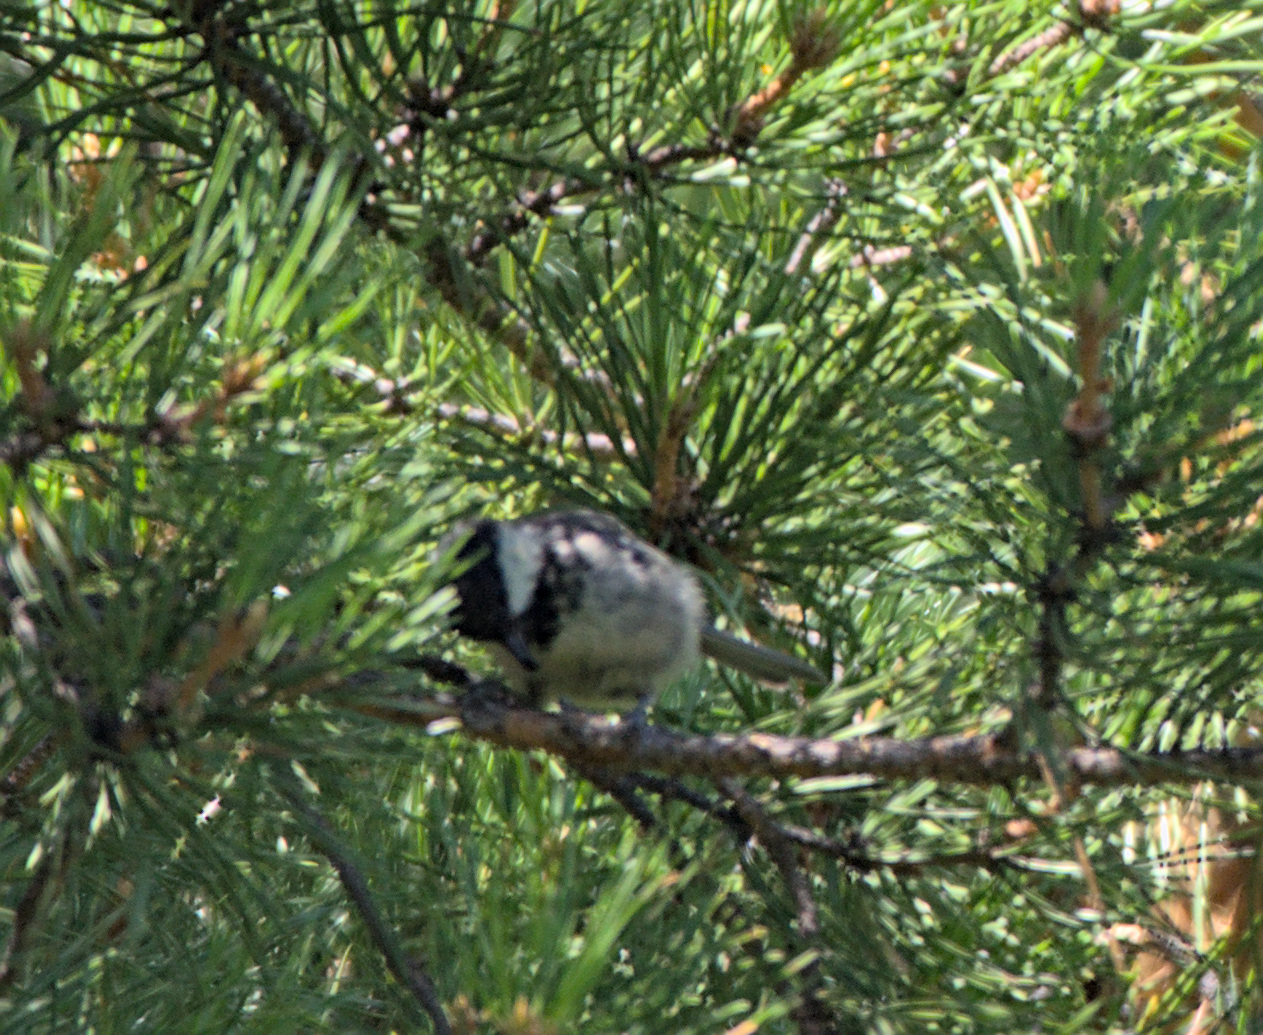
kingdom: Animalia
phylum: Chordata
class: Aves
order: Passeriformes
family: Paridae
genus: Periparus
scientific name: Periparus ater
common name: Coal tit
